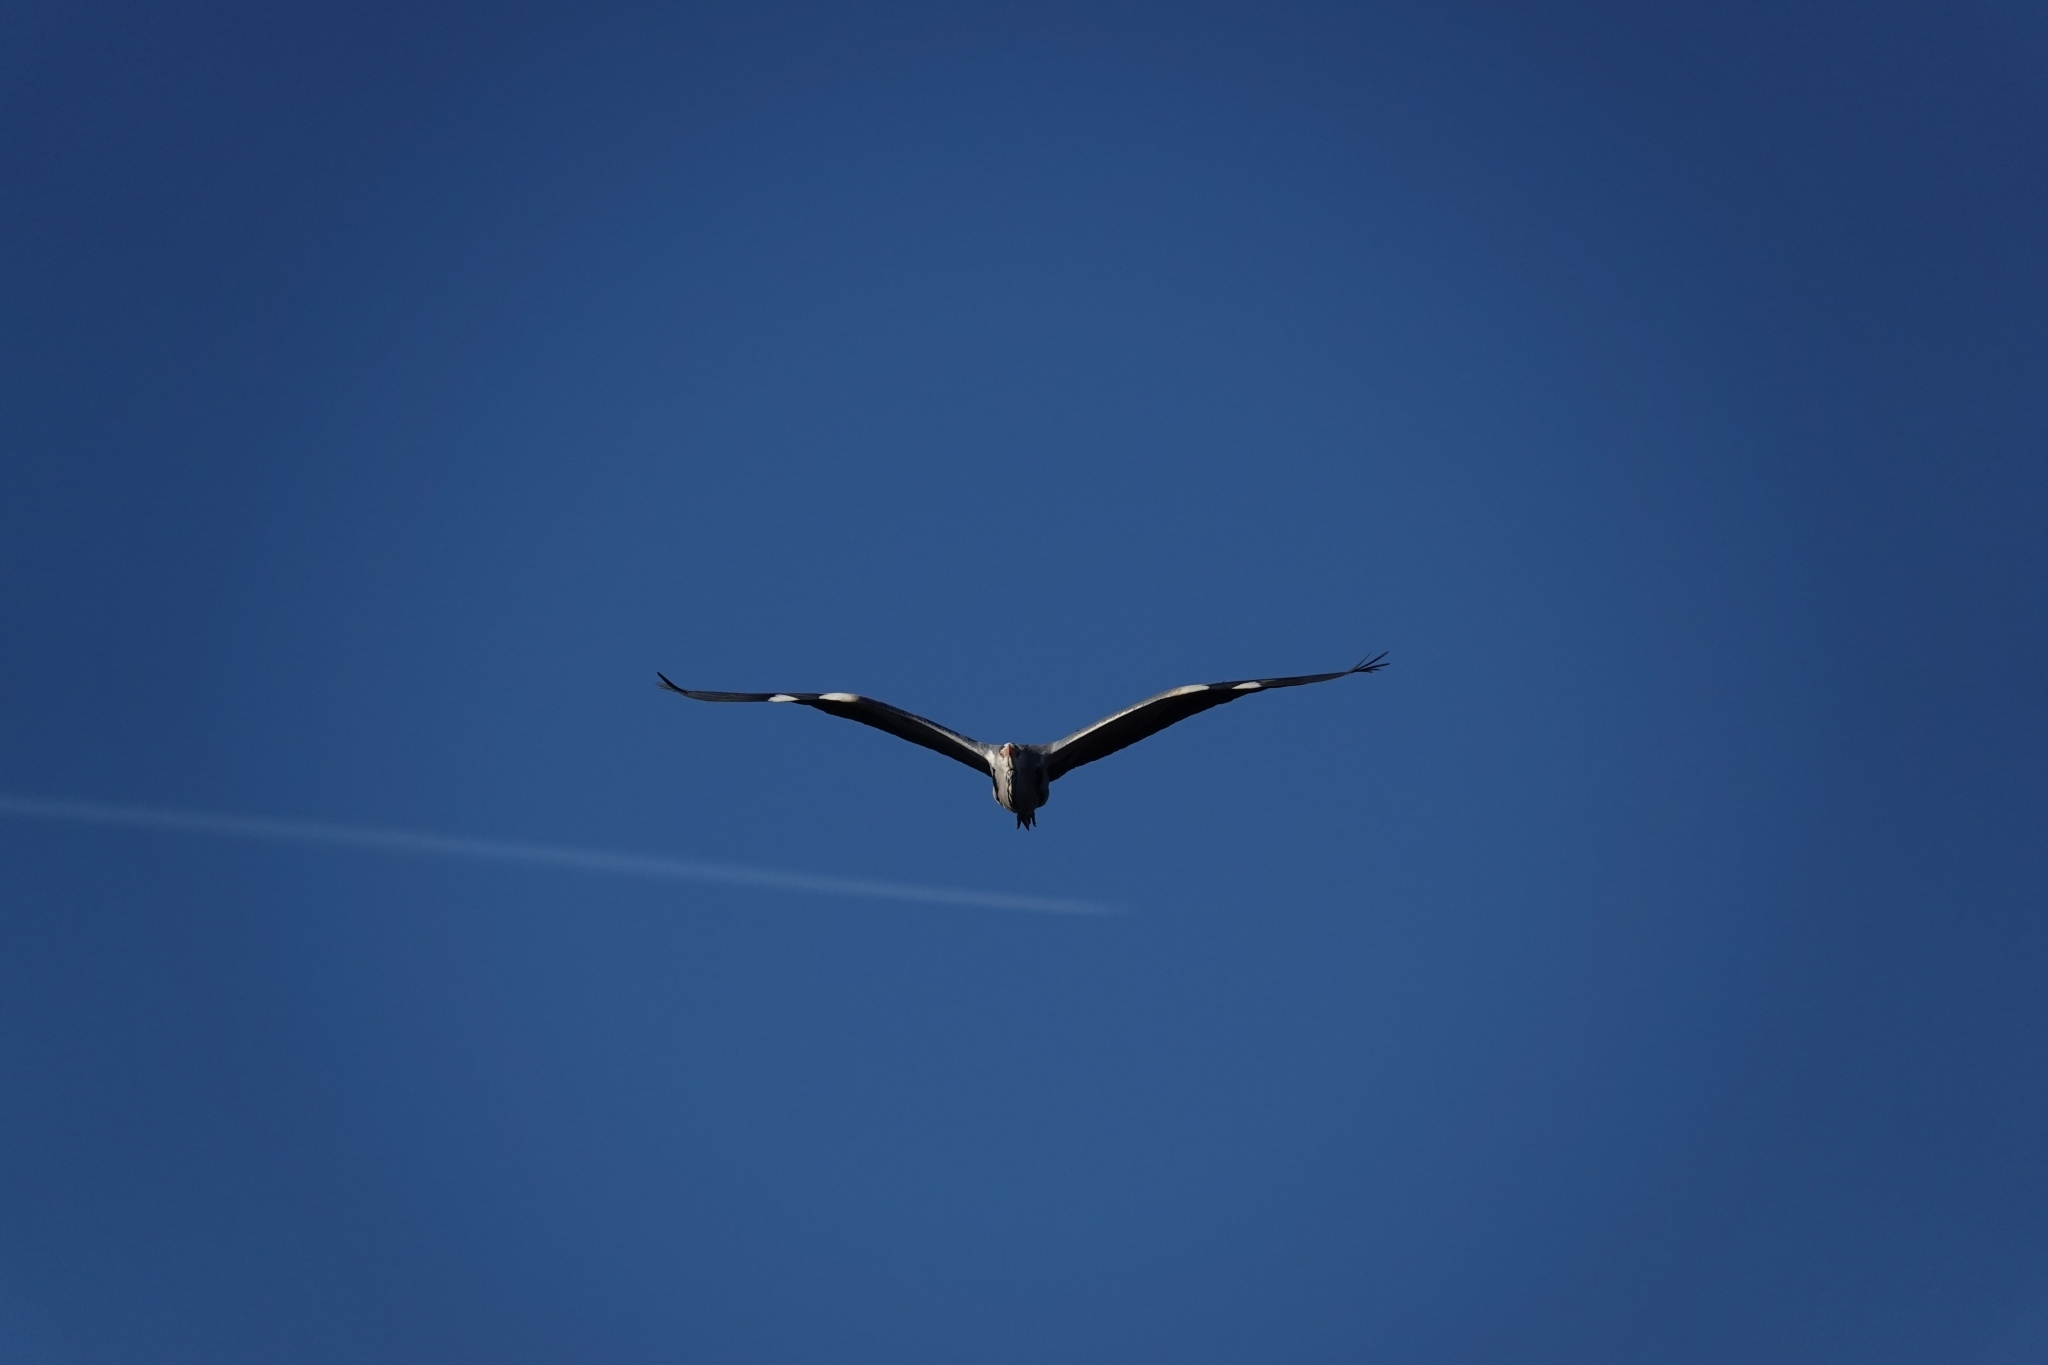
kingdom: Animalia
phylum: Chordata
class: Aves
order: Pelecaniformes
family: Ardeidae
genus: Ardea
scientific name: Ardea cinerea
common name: Grey heron
